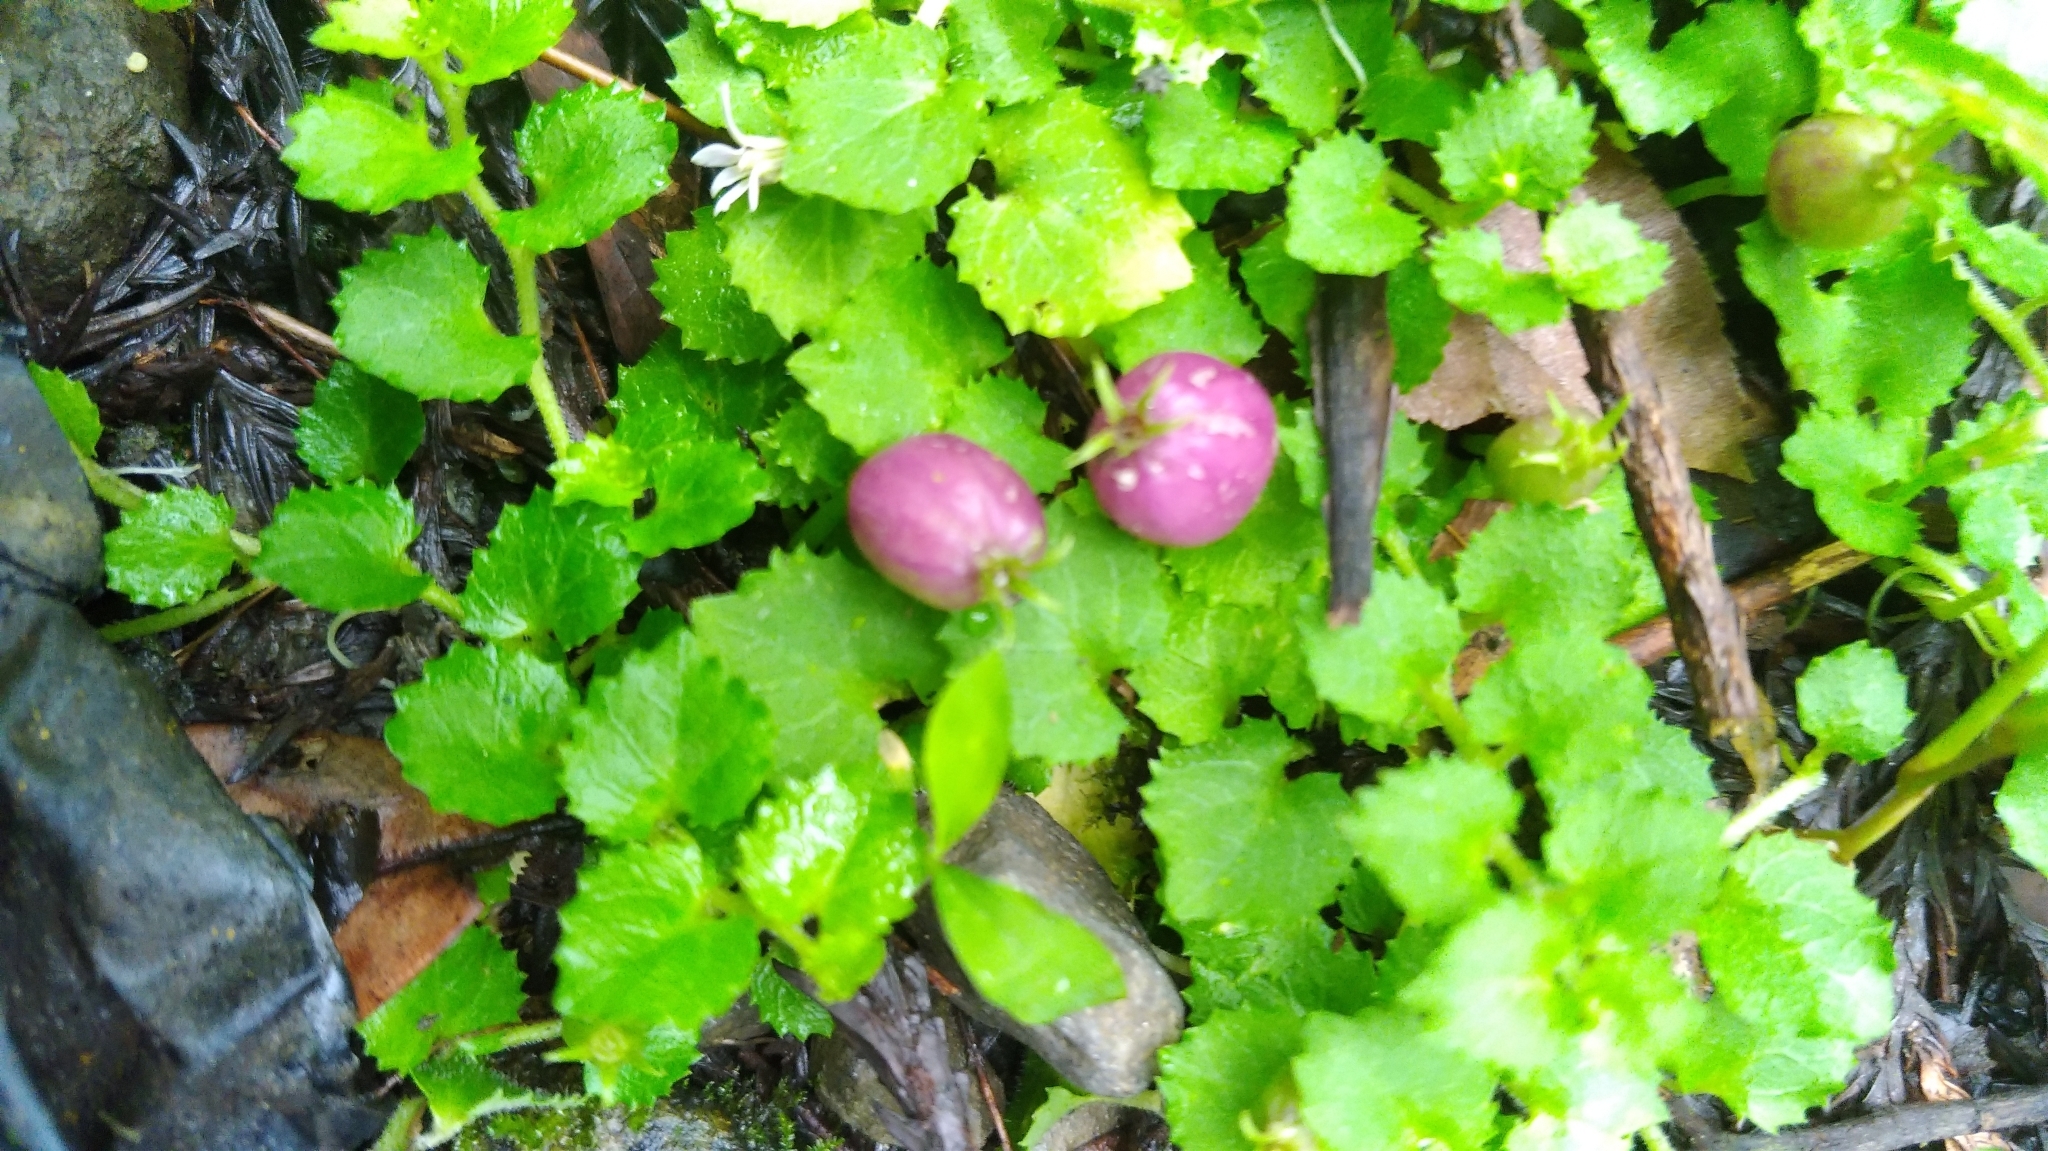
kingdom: Plantae
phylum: Tracheophyta
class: Magnoliopsida
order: Asterales
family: Campanulaceae
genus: Lobelia
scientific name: Lobelia nummularia
